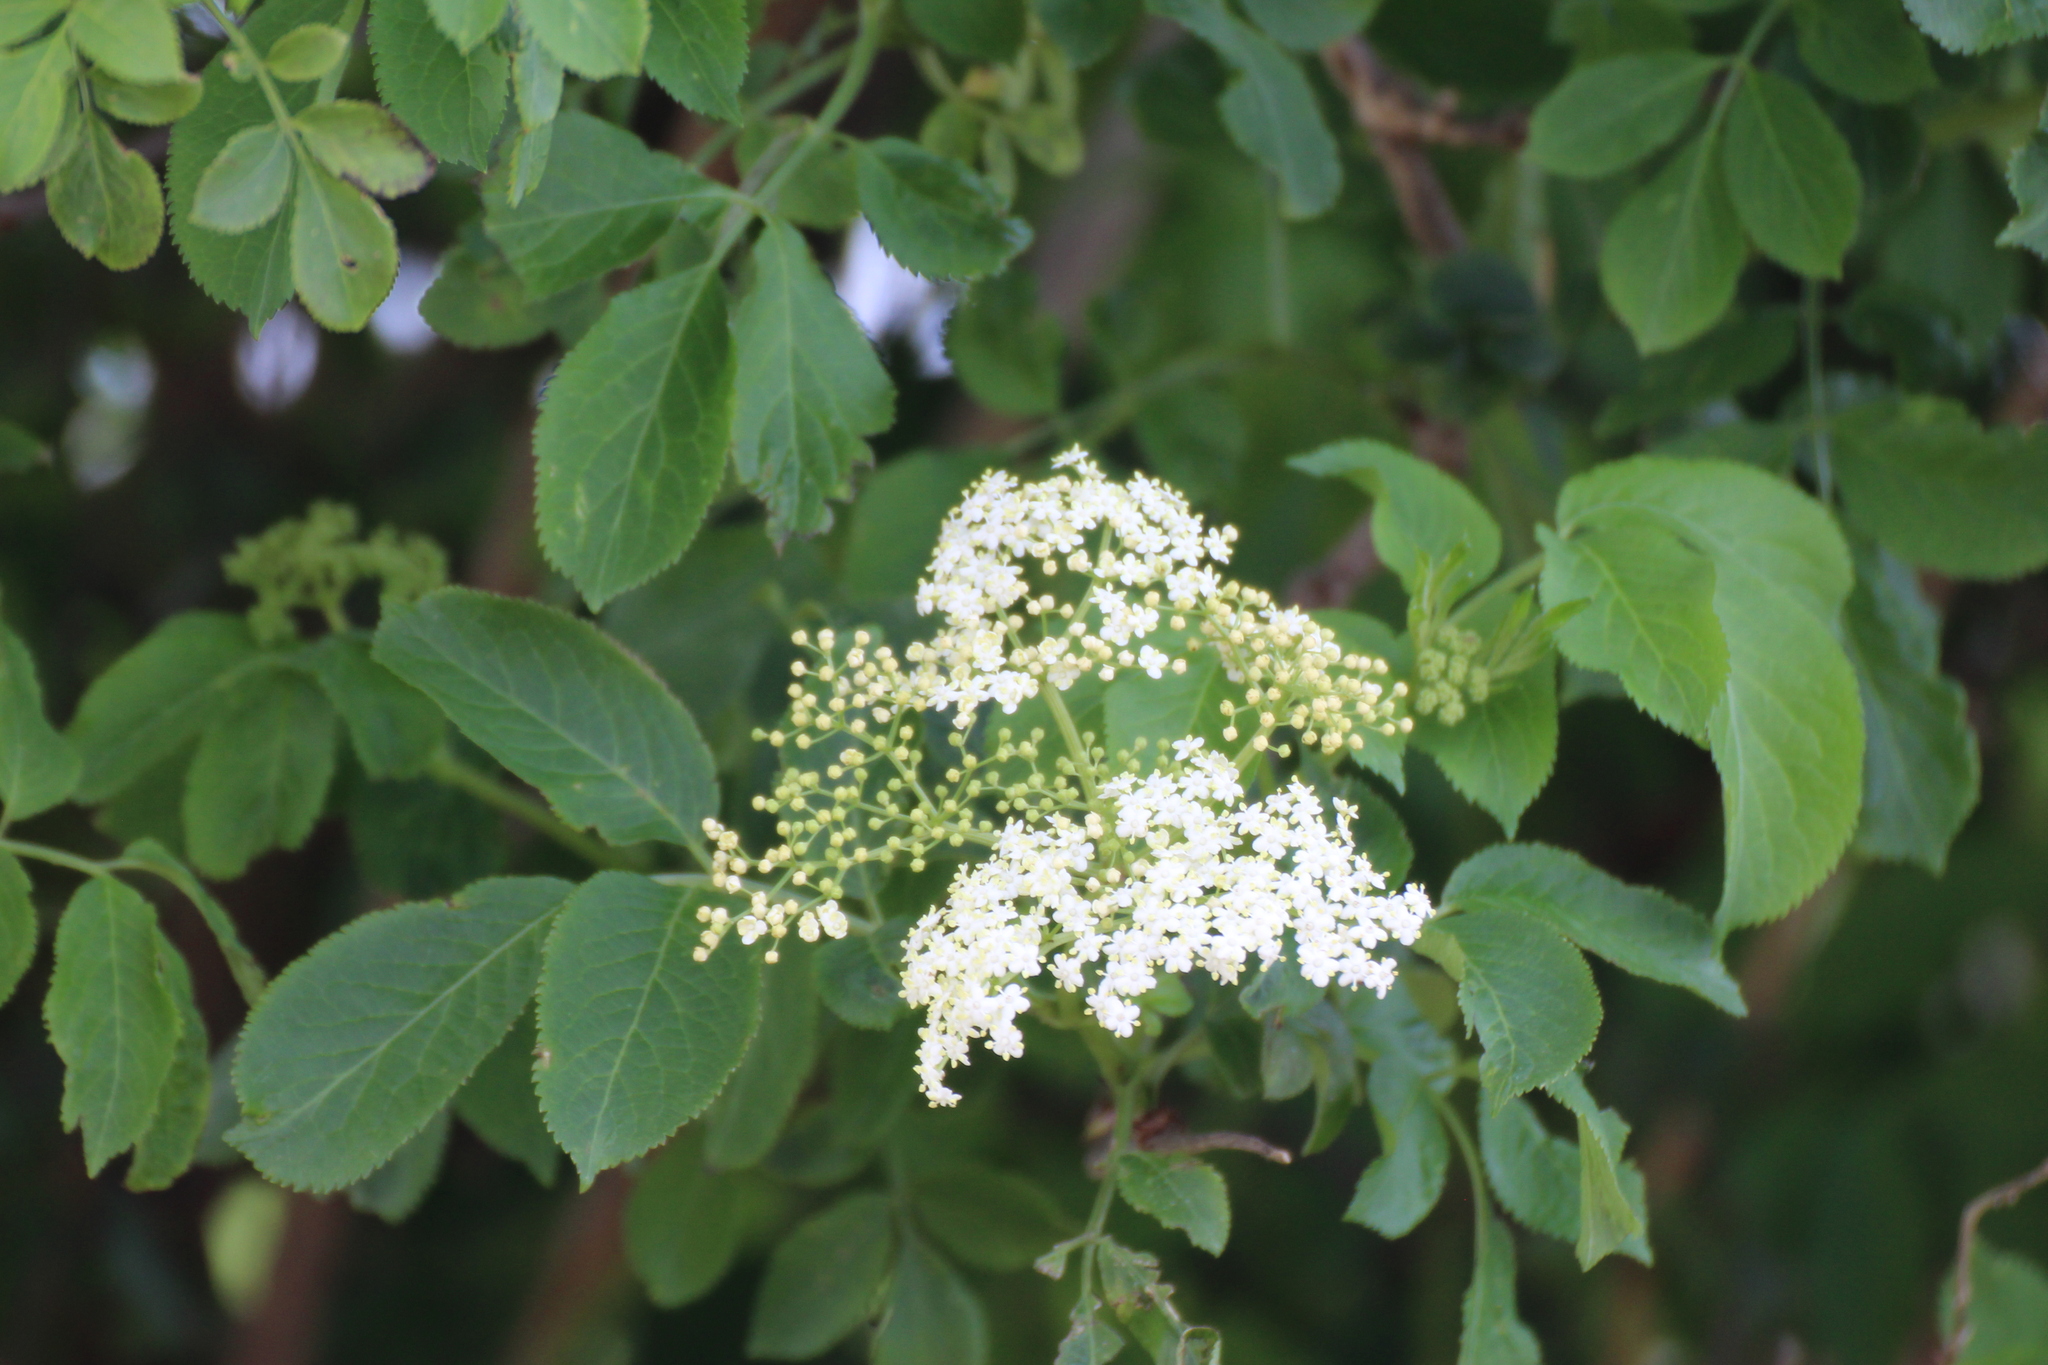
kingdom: Plantae
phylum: Tracheophyta
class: Magnoliopsida
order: Dipsacales
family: Viburnaceae
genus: Sambucus
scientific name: Sambucus nigra
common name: Elder
